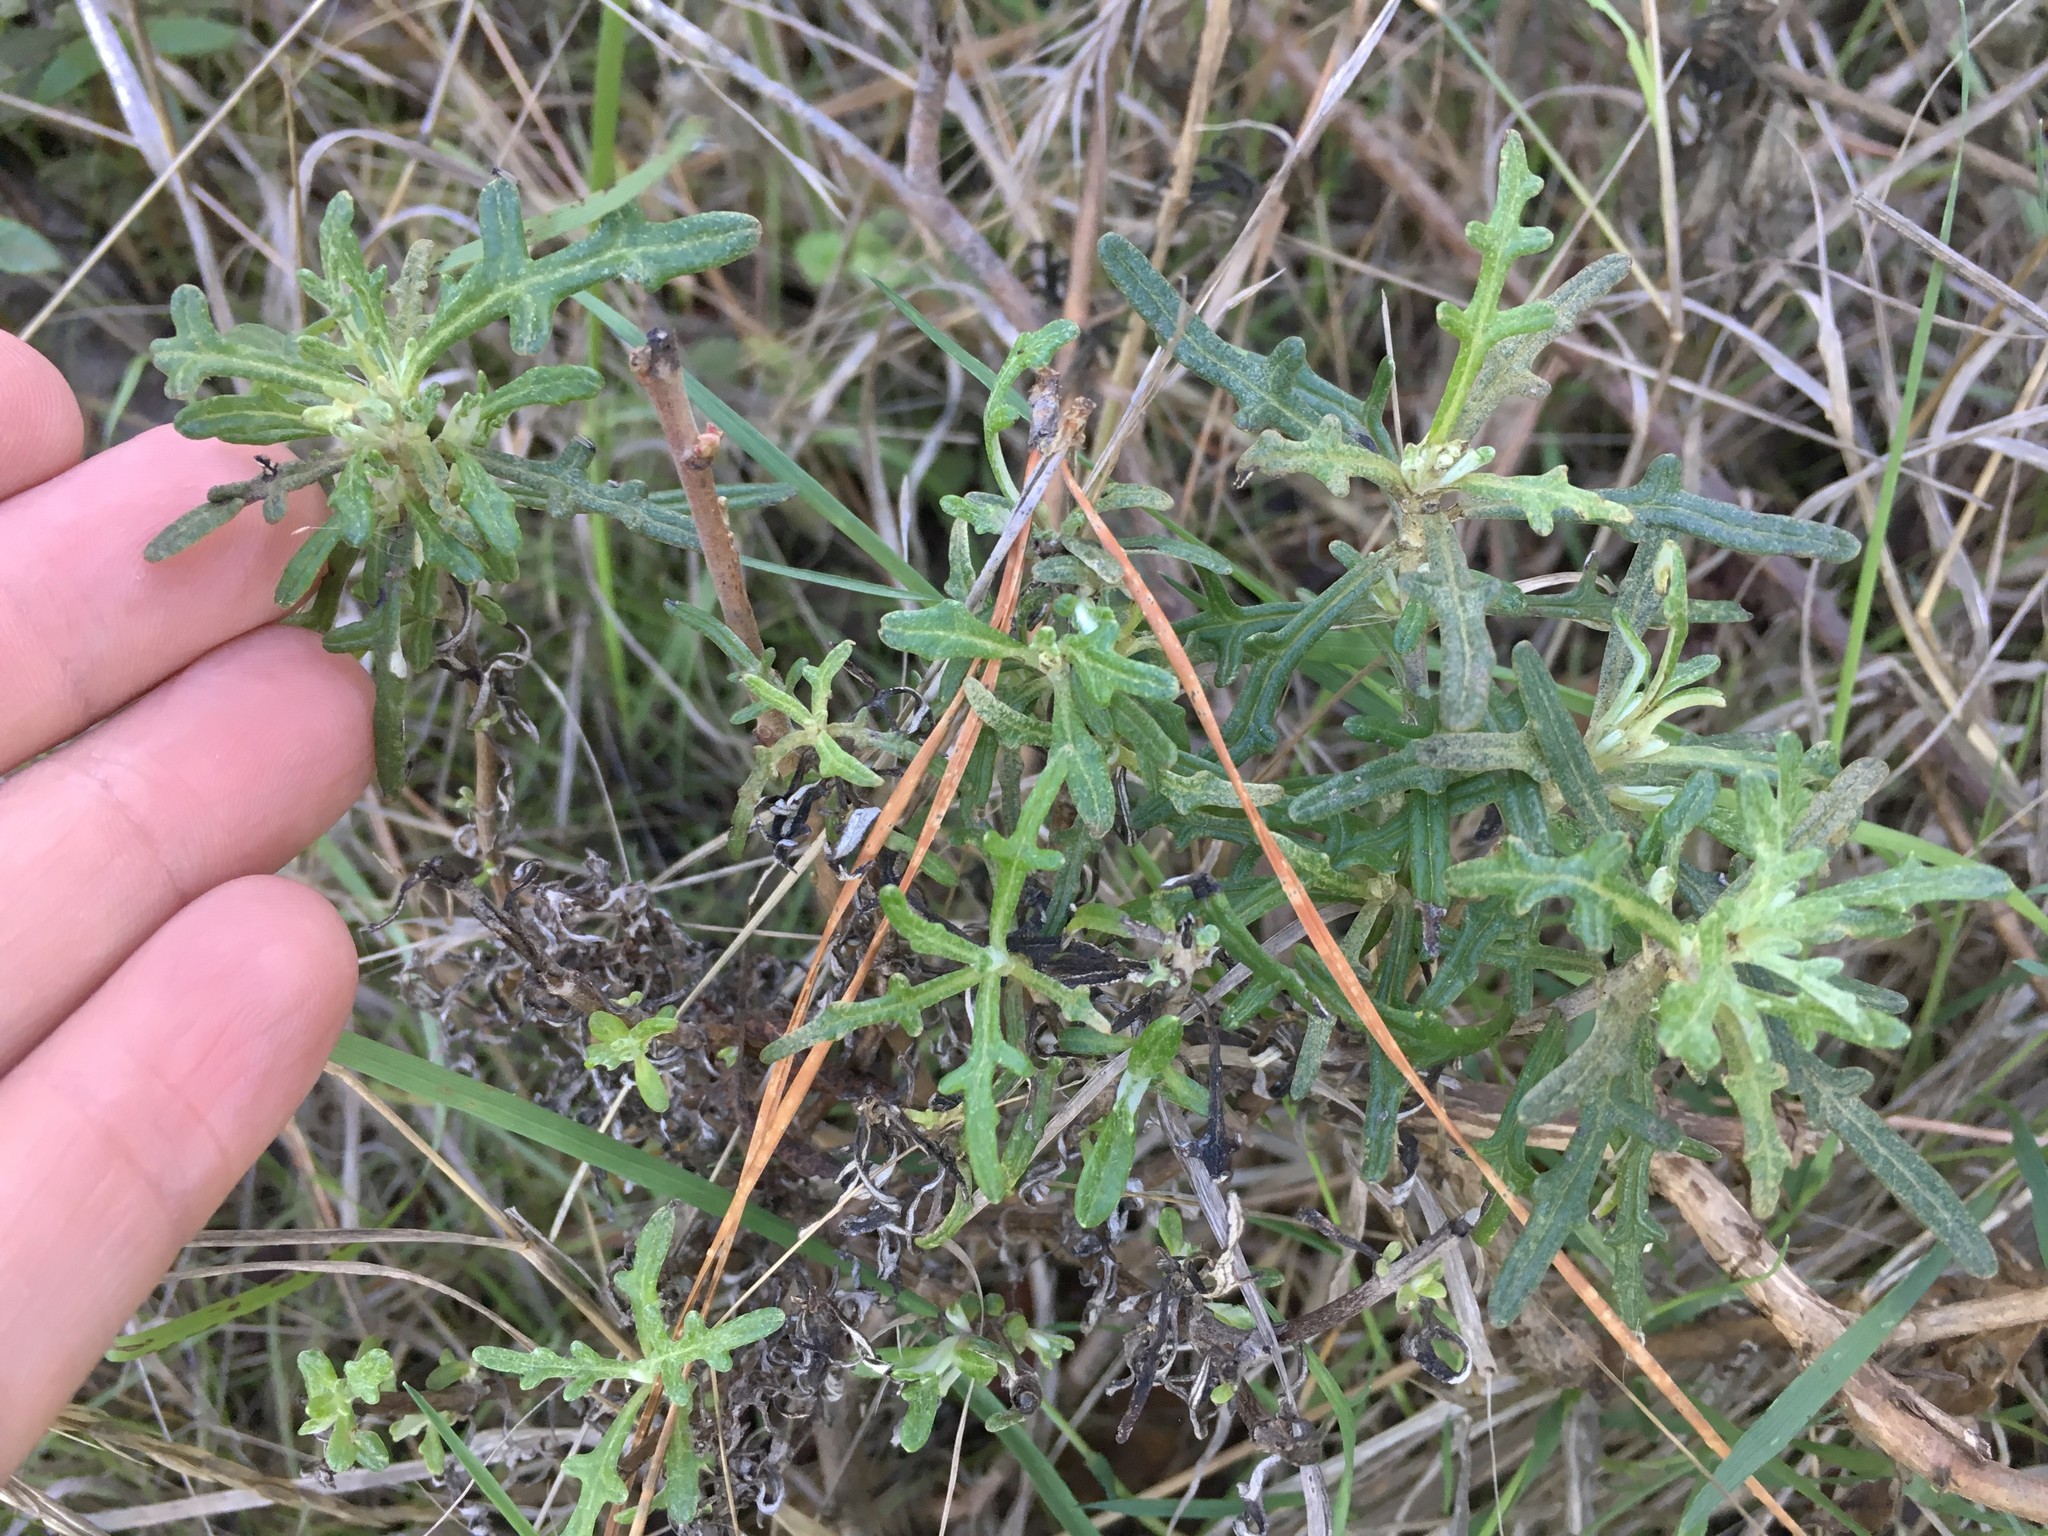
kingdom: Plantae
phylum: Tracheophyta
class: Magnoliopsida
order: Asterales
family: Asteraceae
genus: Eriophyllum
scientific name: Eriophyllum staechadifolium
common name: Lizardtail
